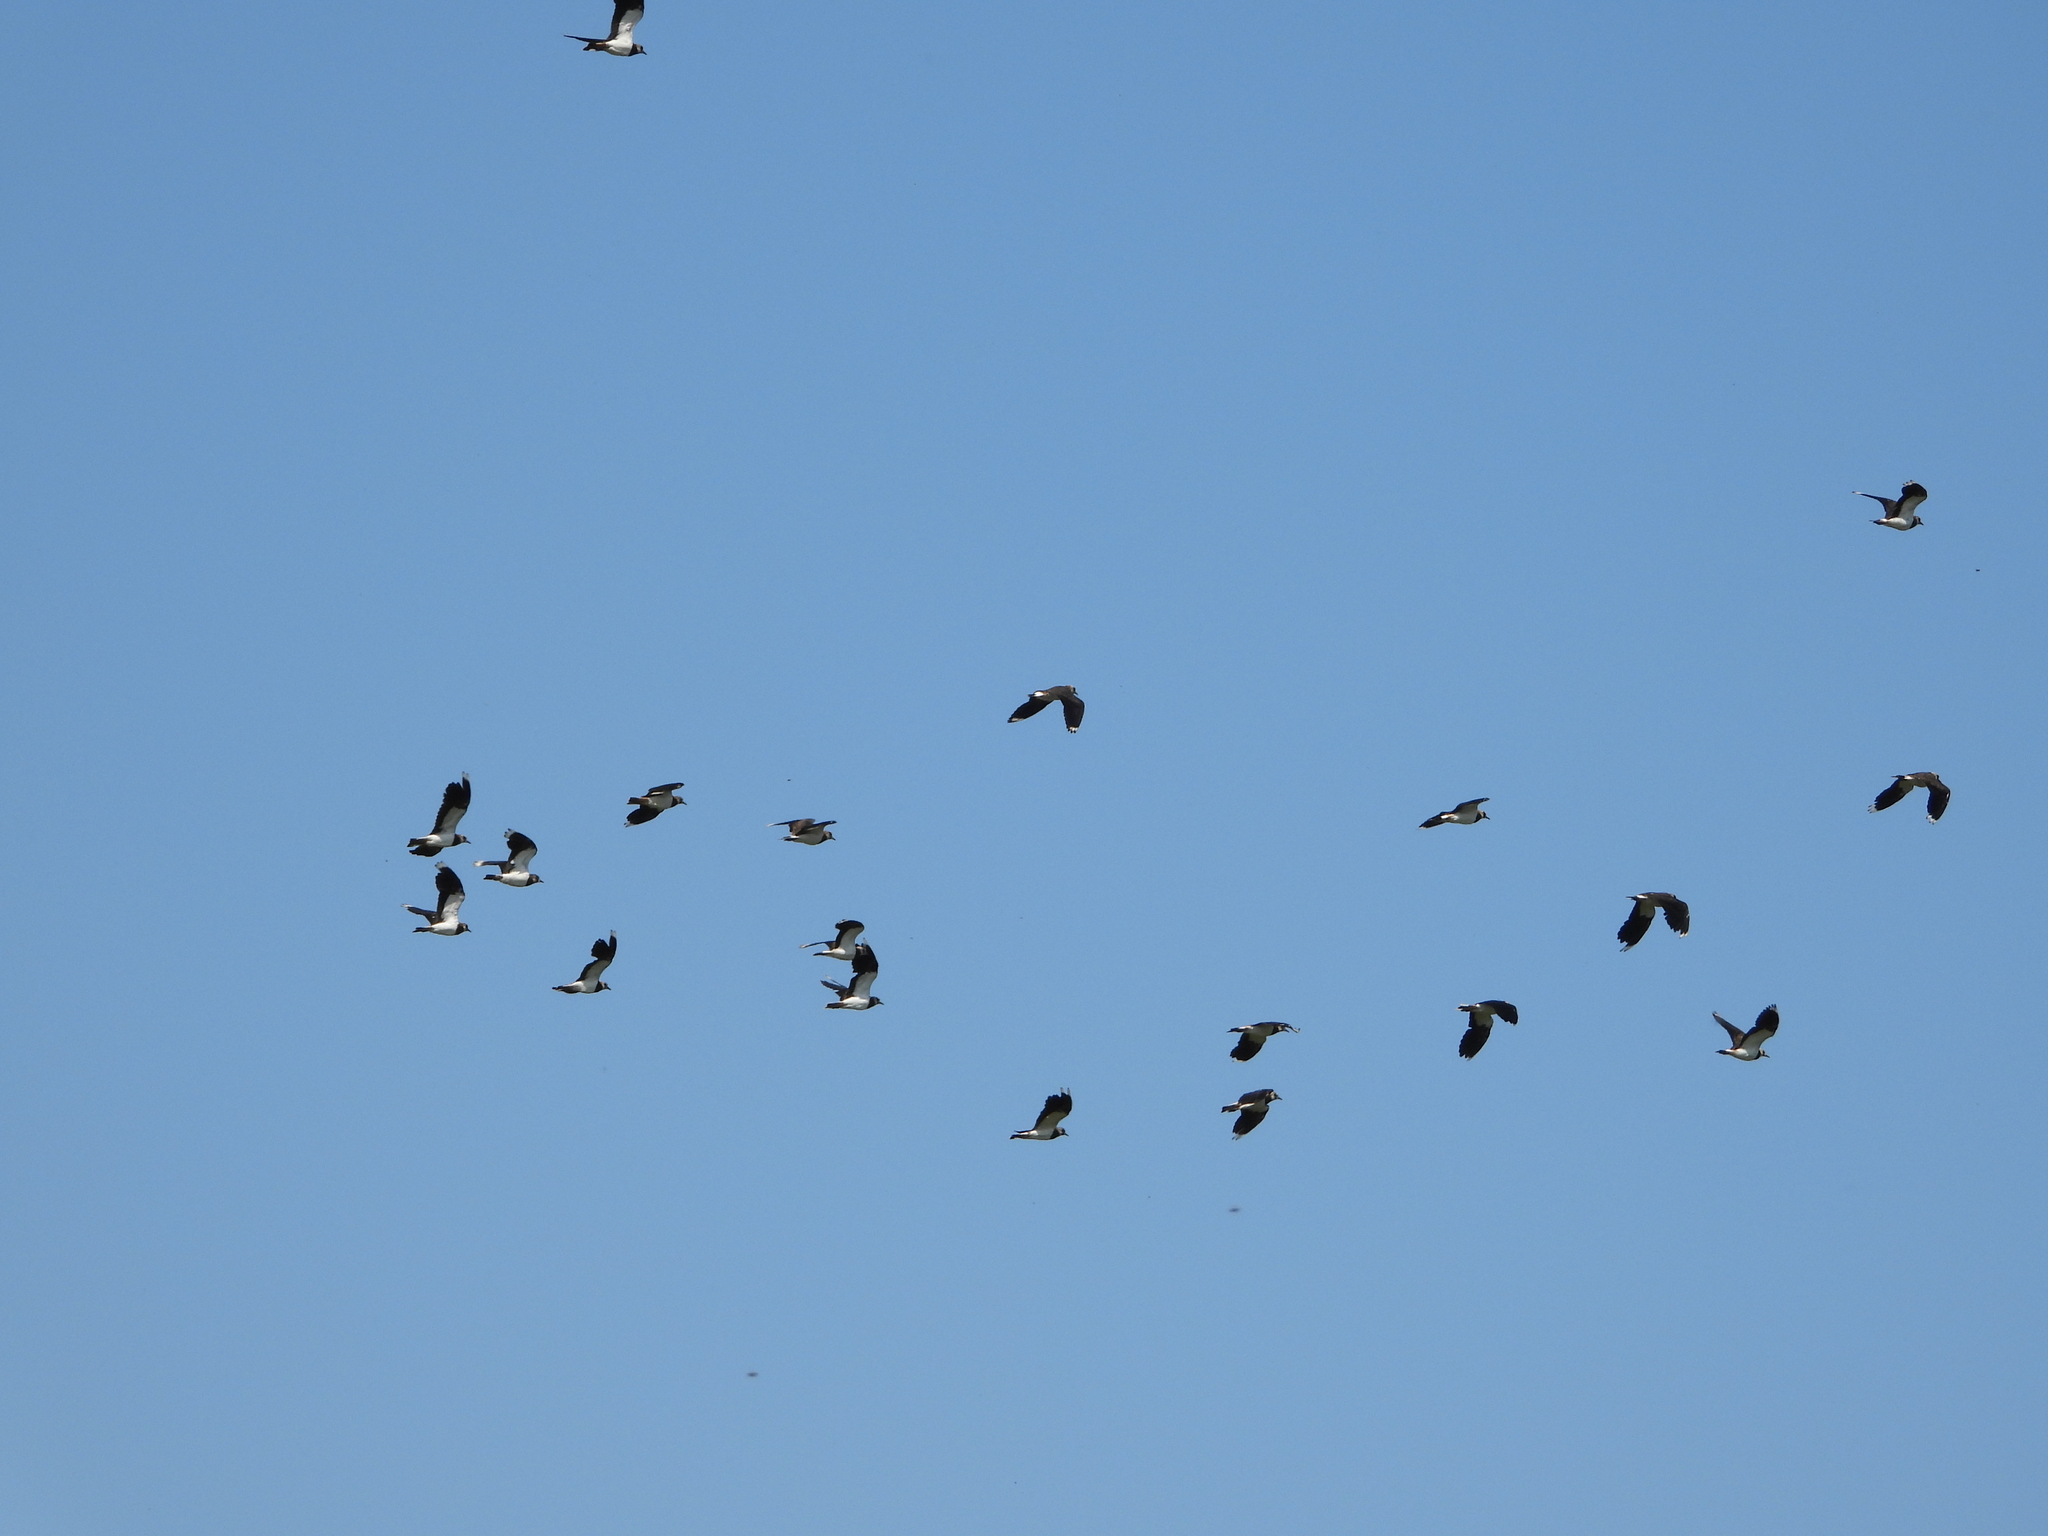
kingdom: Animalia
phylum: Chordata
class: Aves
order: Charadriiformes
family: Charadriidae
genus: Vanellus
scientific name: Vanellus vanellus
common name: Northern lapwing
